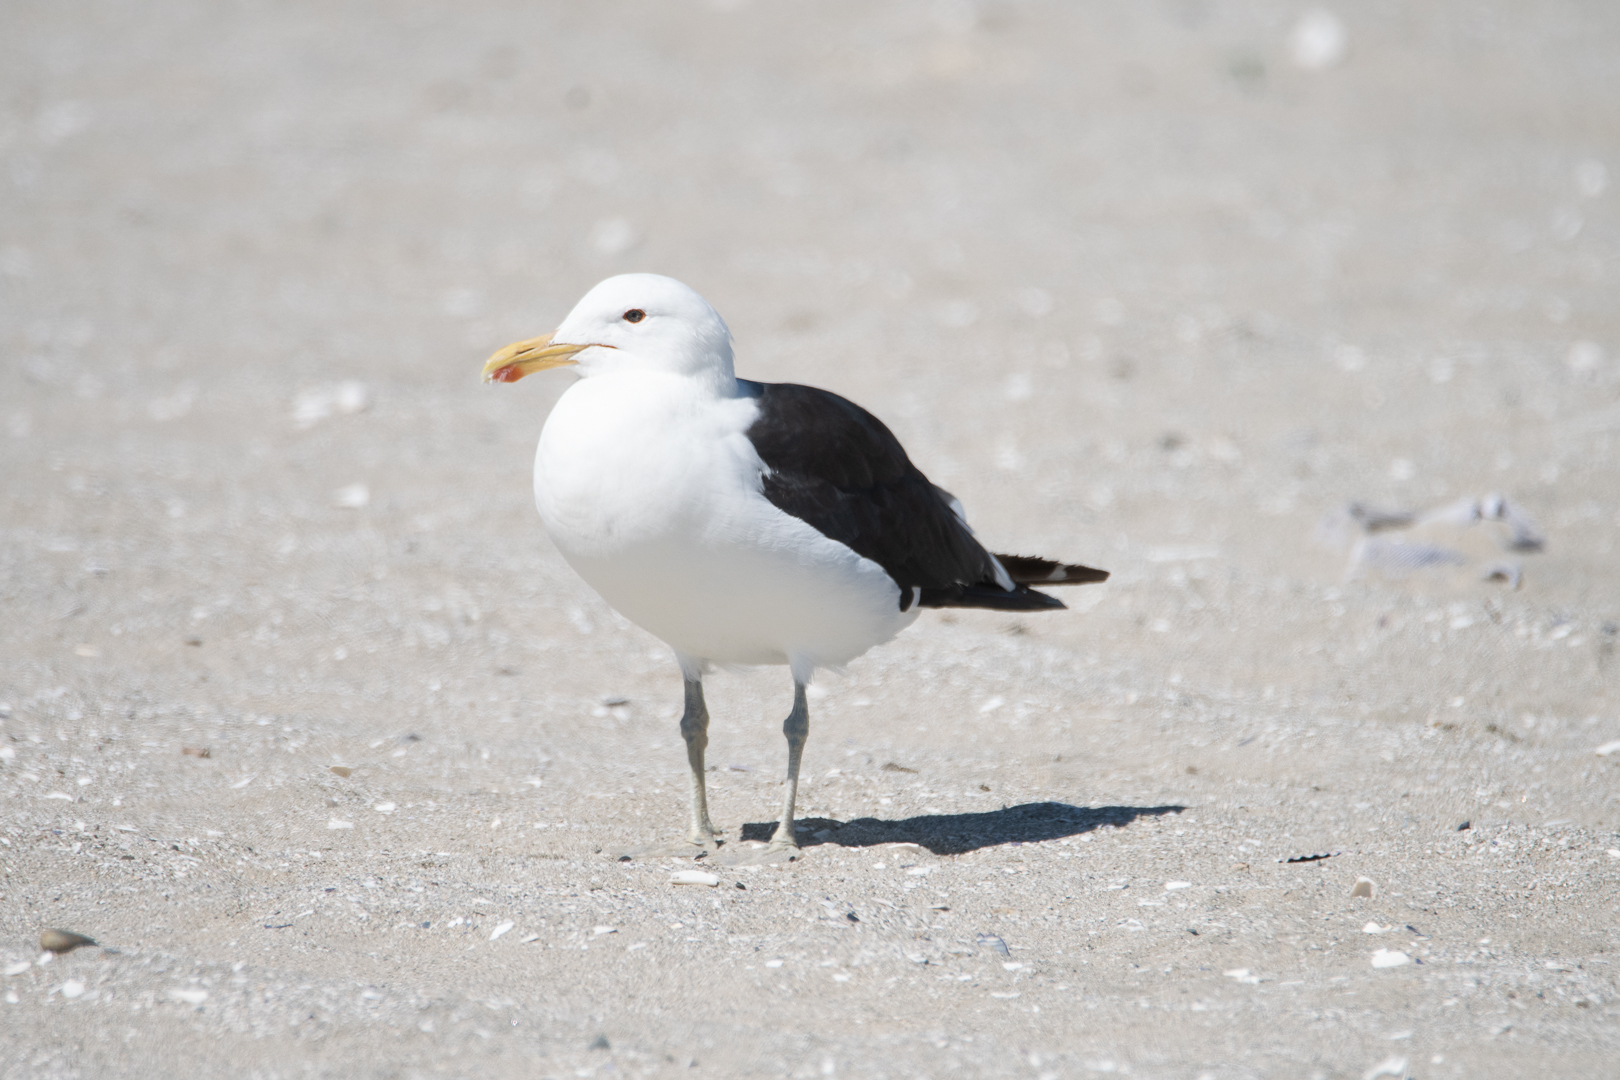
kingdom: Animalia
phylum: Chordata
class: Aves
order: Charadriiformes
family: Laridae
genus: Larus
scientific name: Larus dominicanus
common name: Kelp gull
